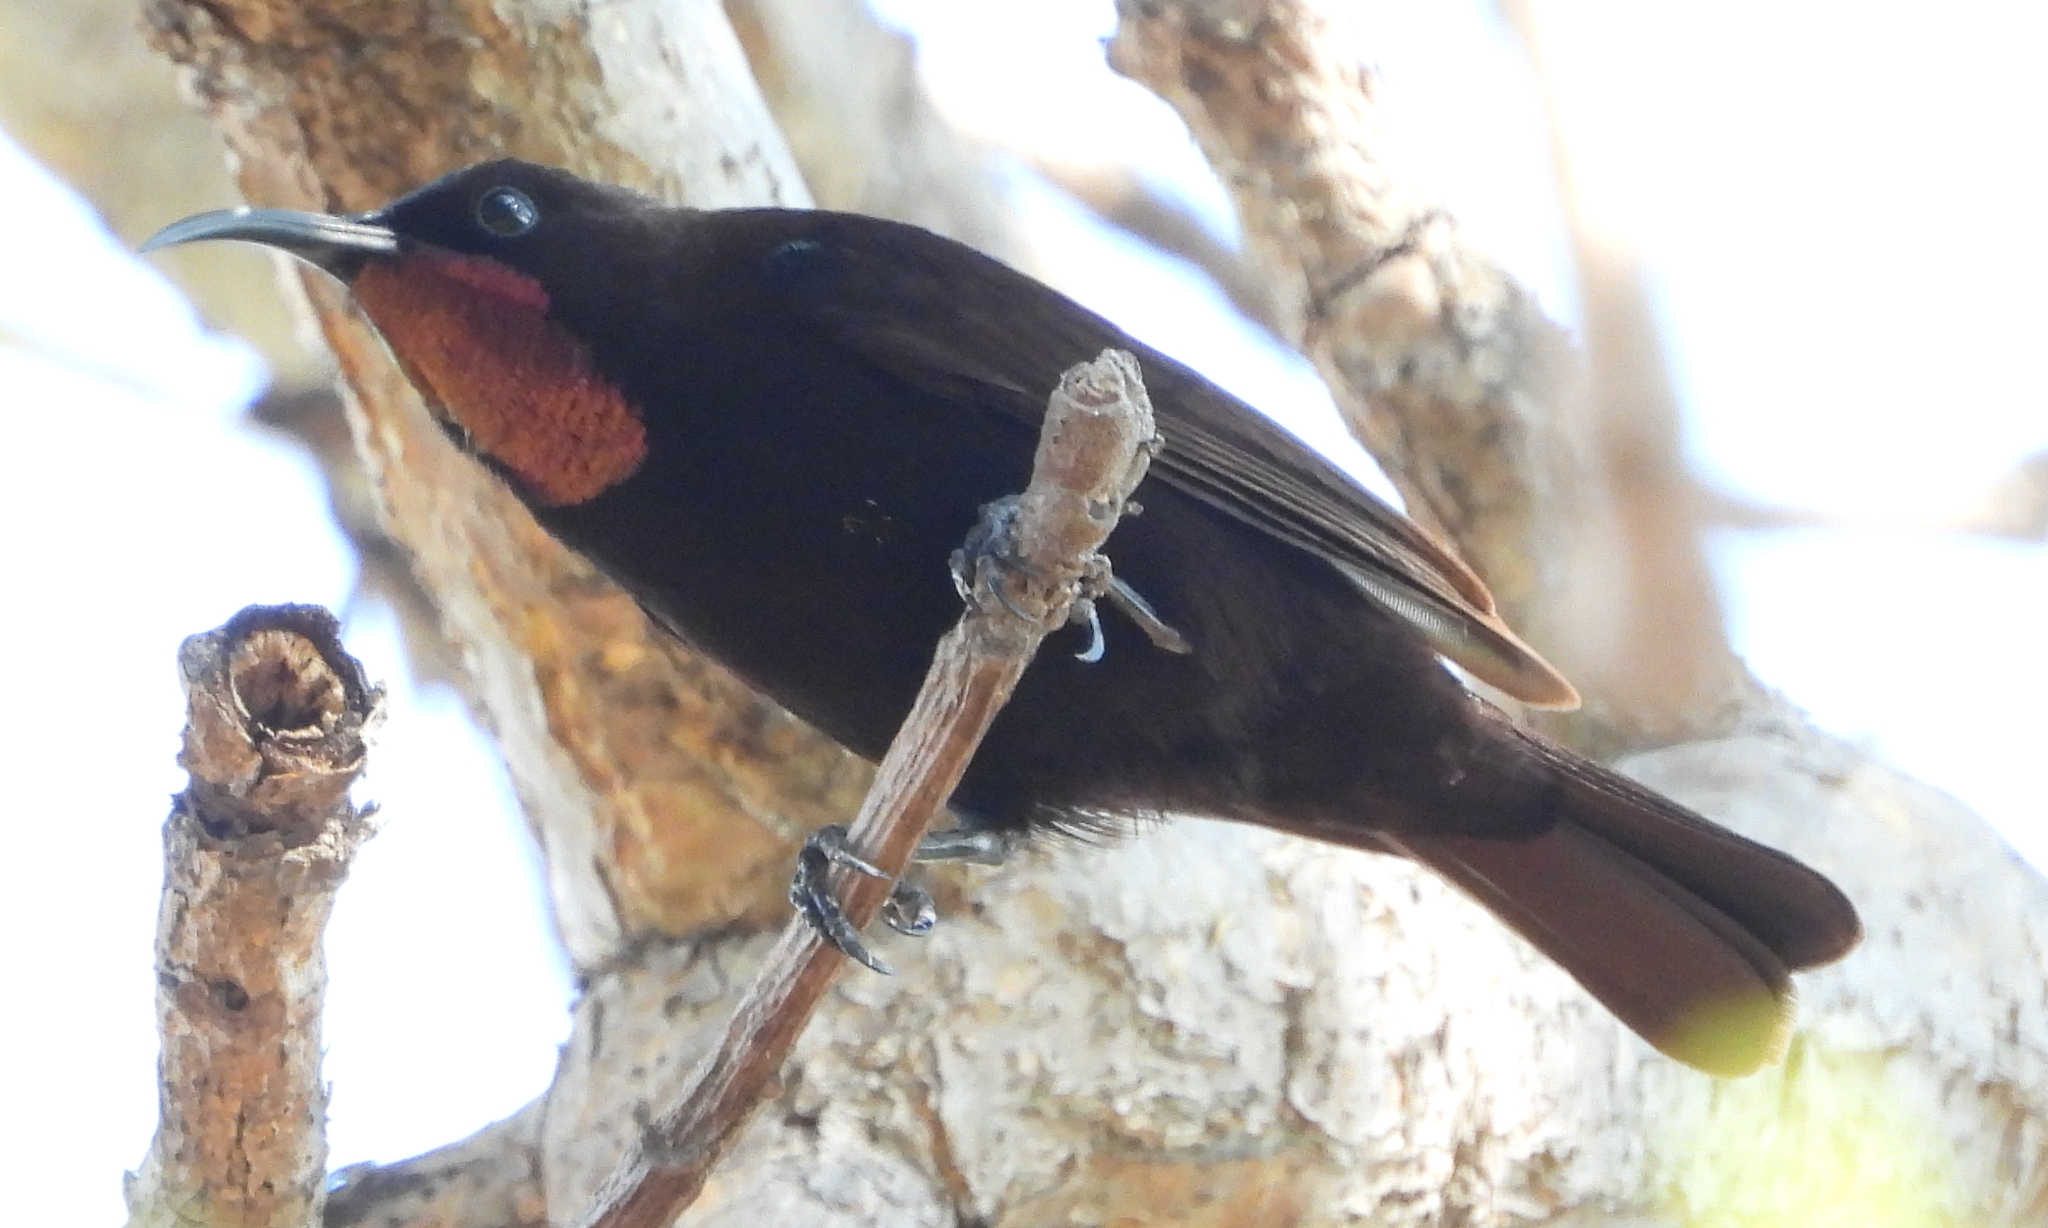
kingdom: Animalia
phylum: Chordata
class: Aves
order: Passeriformes
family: Nectariniidae
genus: Chalcomitra
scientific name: Chalcomitra amethystina
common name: Amethyst sunbird
